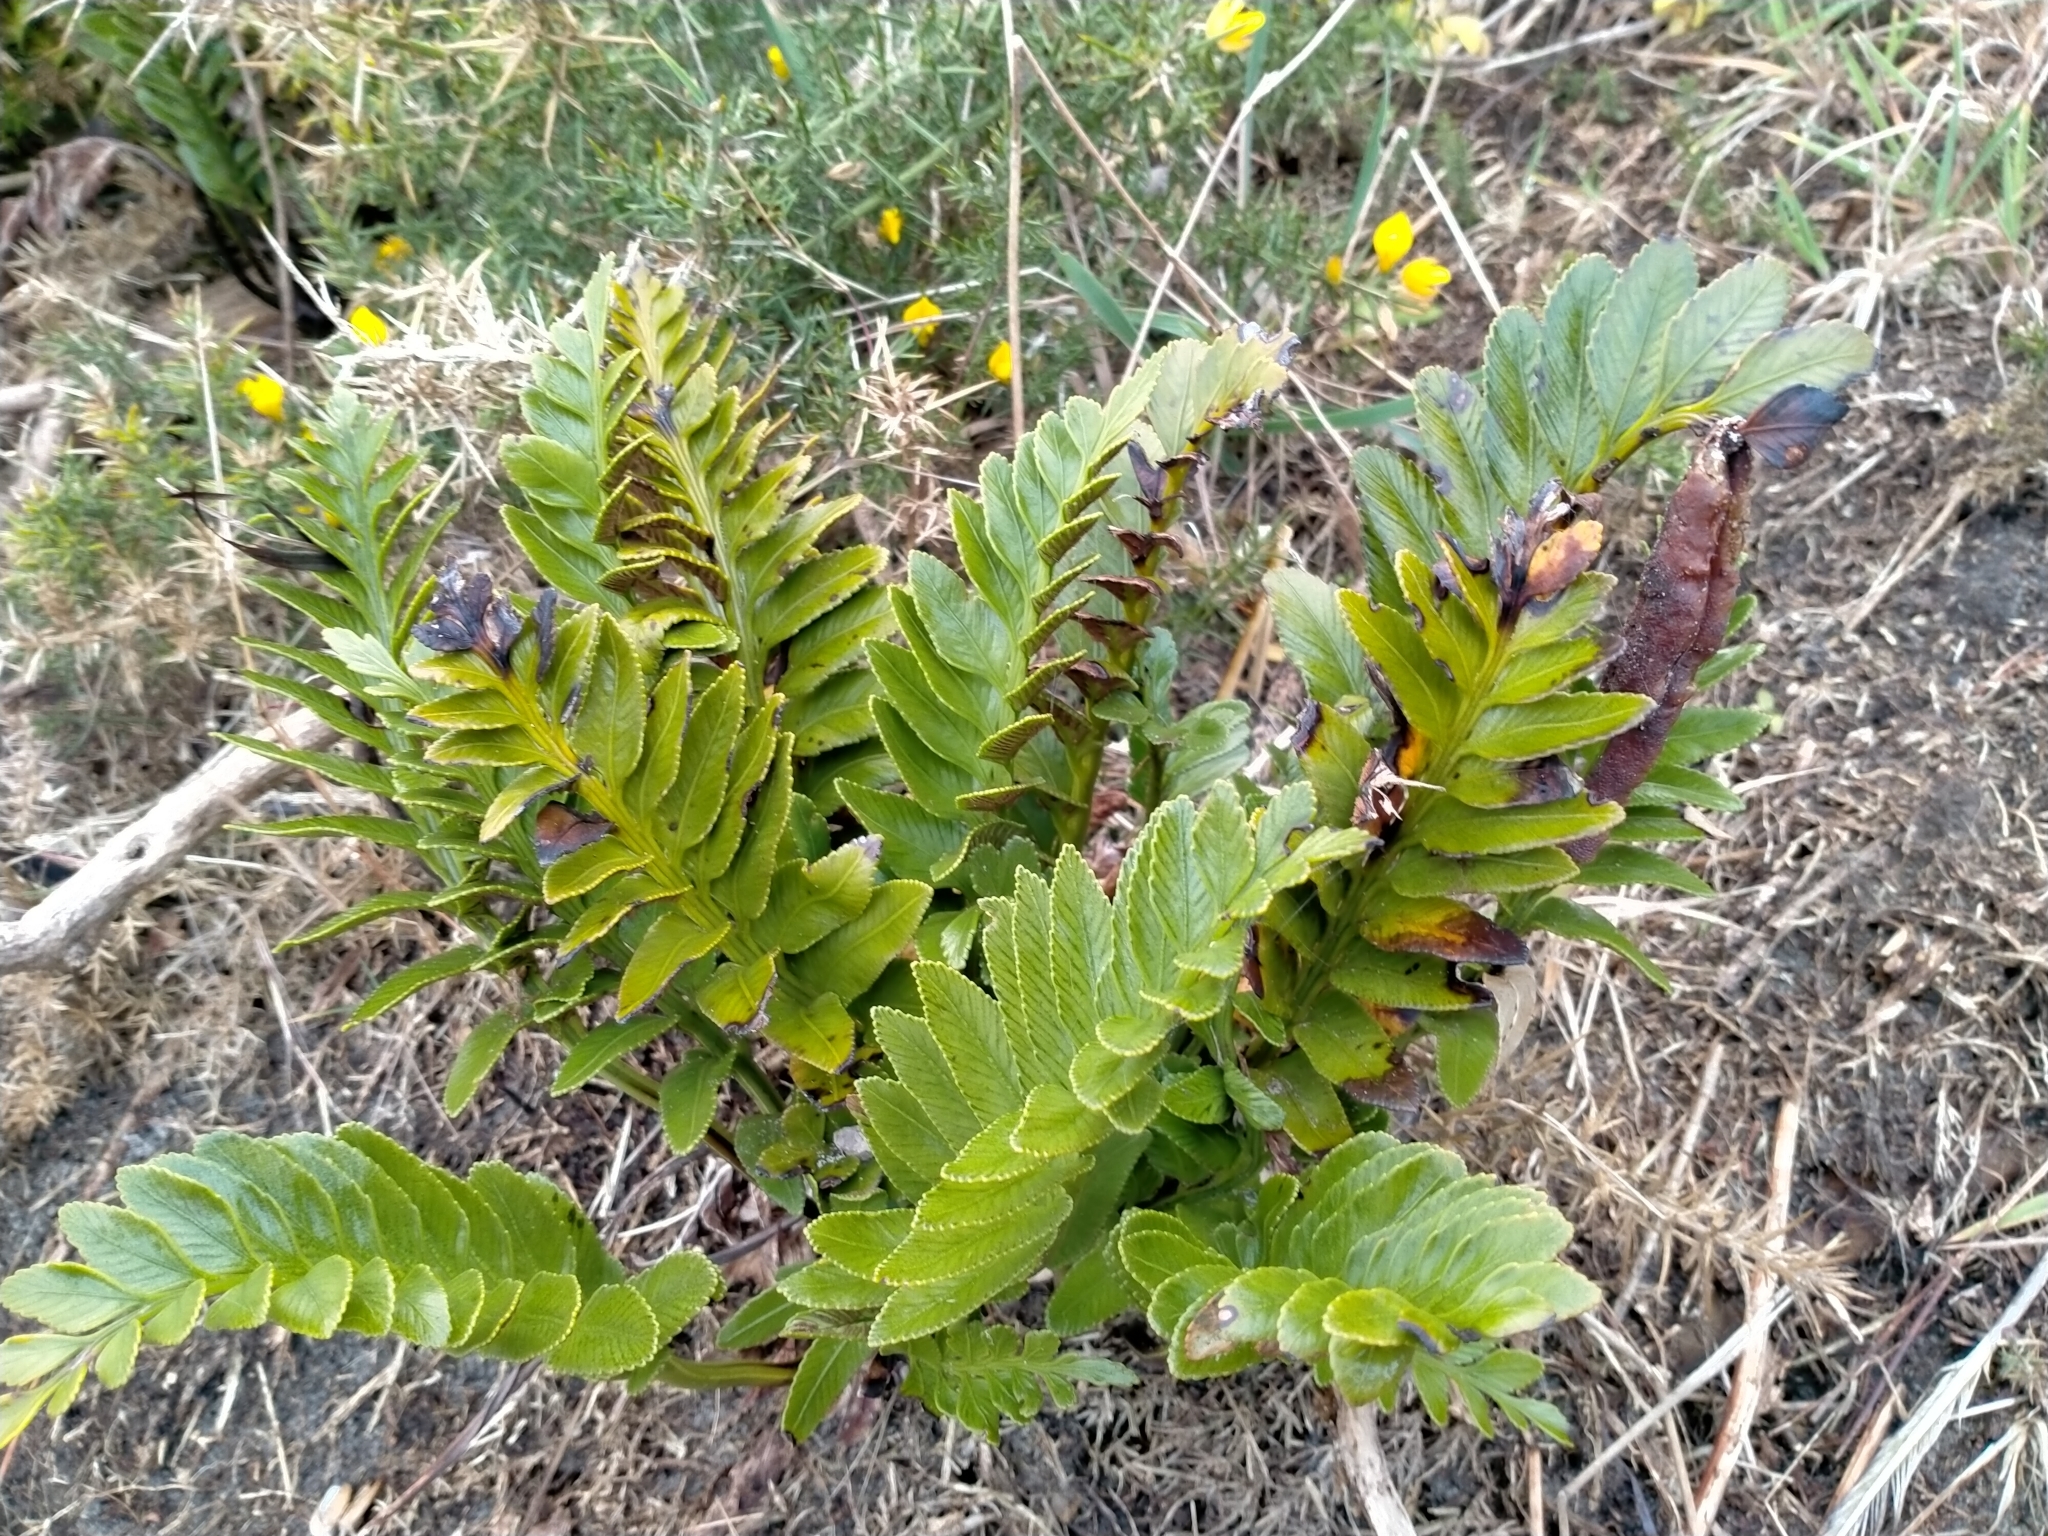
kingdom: Plantae
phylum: Tracheophyta
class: Polypodiopsida
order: Polypodiales
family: Aspleniaceae
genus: Asplenium
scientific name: Asplenium obtusatum
